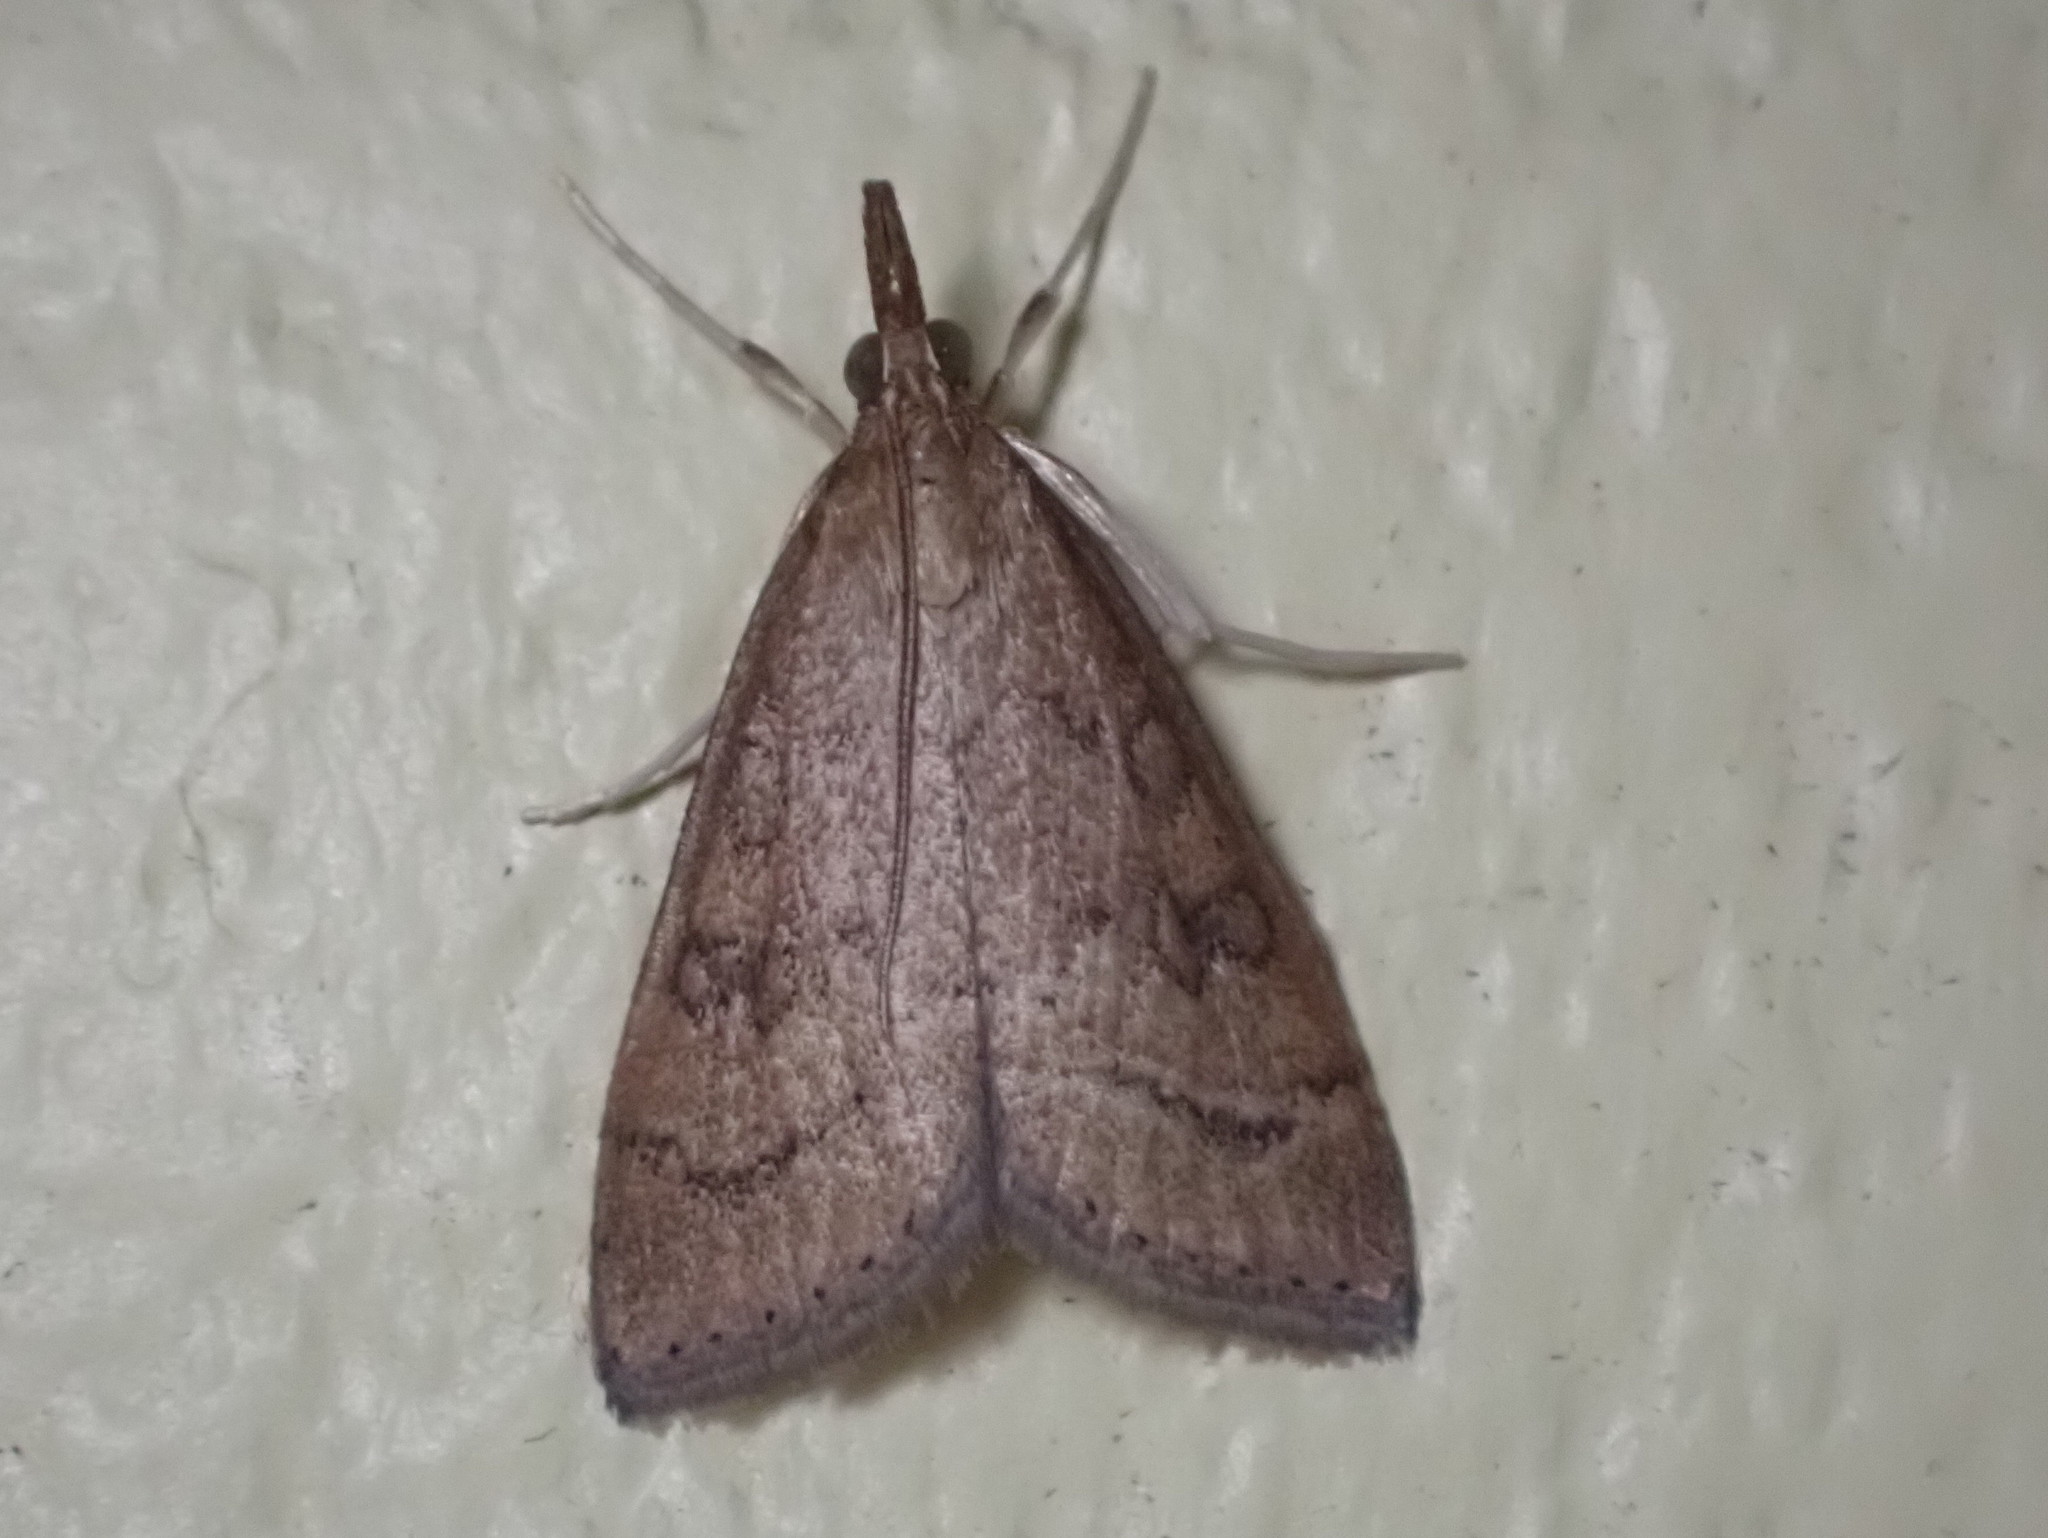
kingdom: Animalia
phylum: Arthropoda
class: Insecta
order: Lepidoptera
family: Crambidae
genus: Udea
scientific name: Udea rubigalis
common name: Celery leaftier moth
